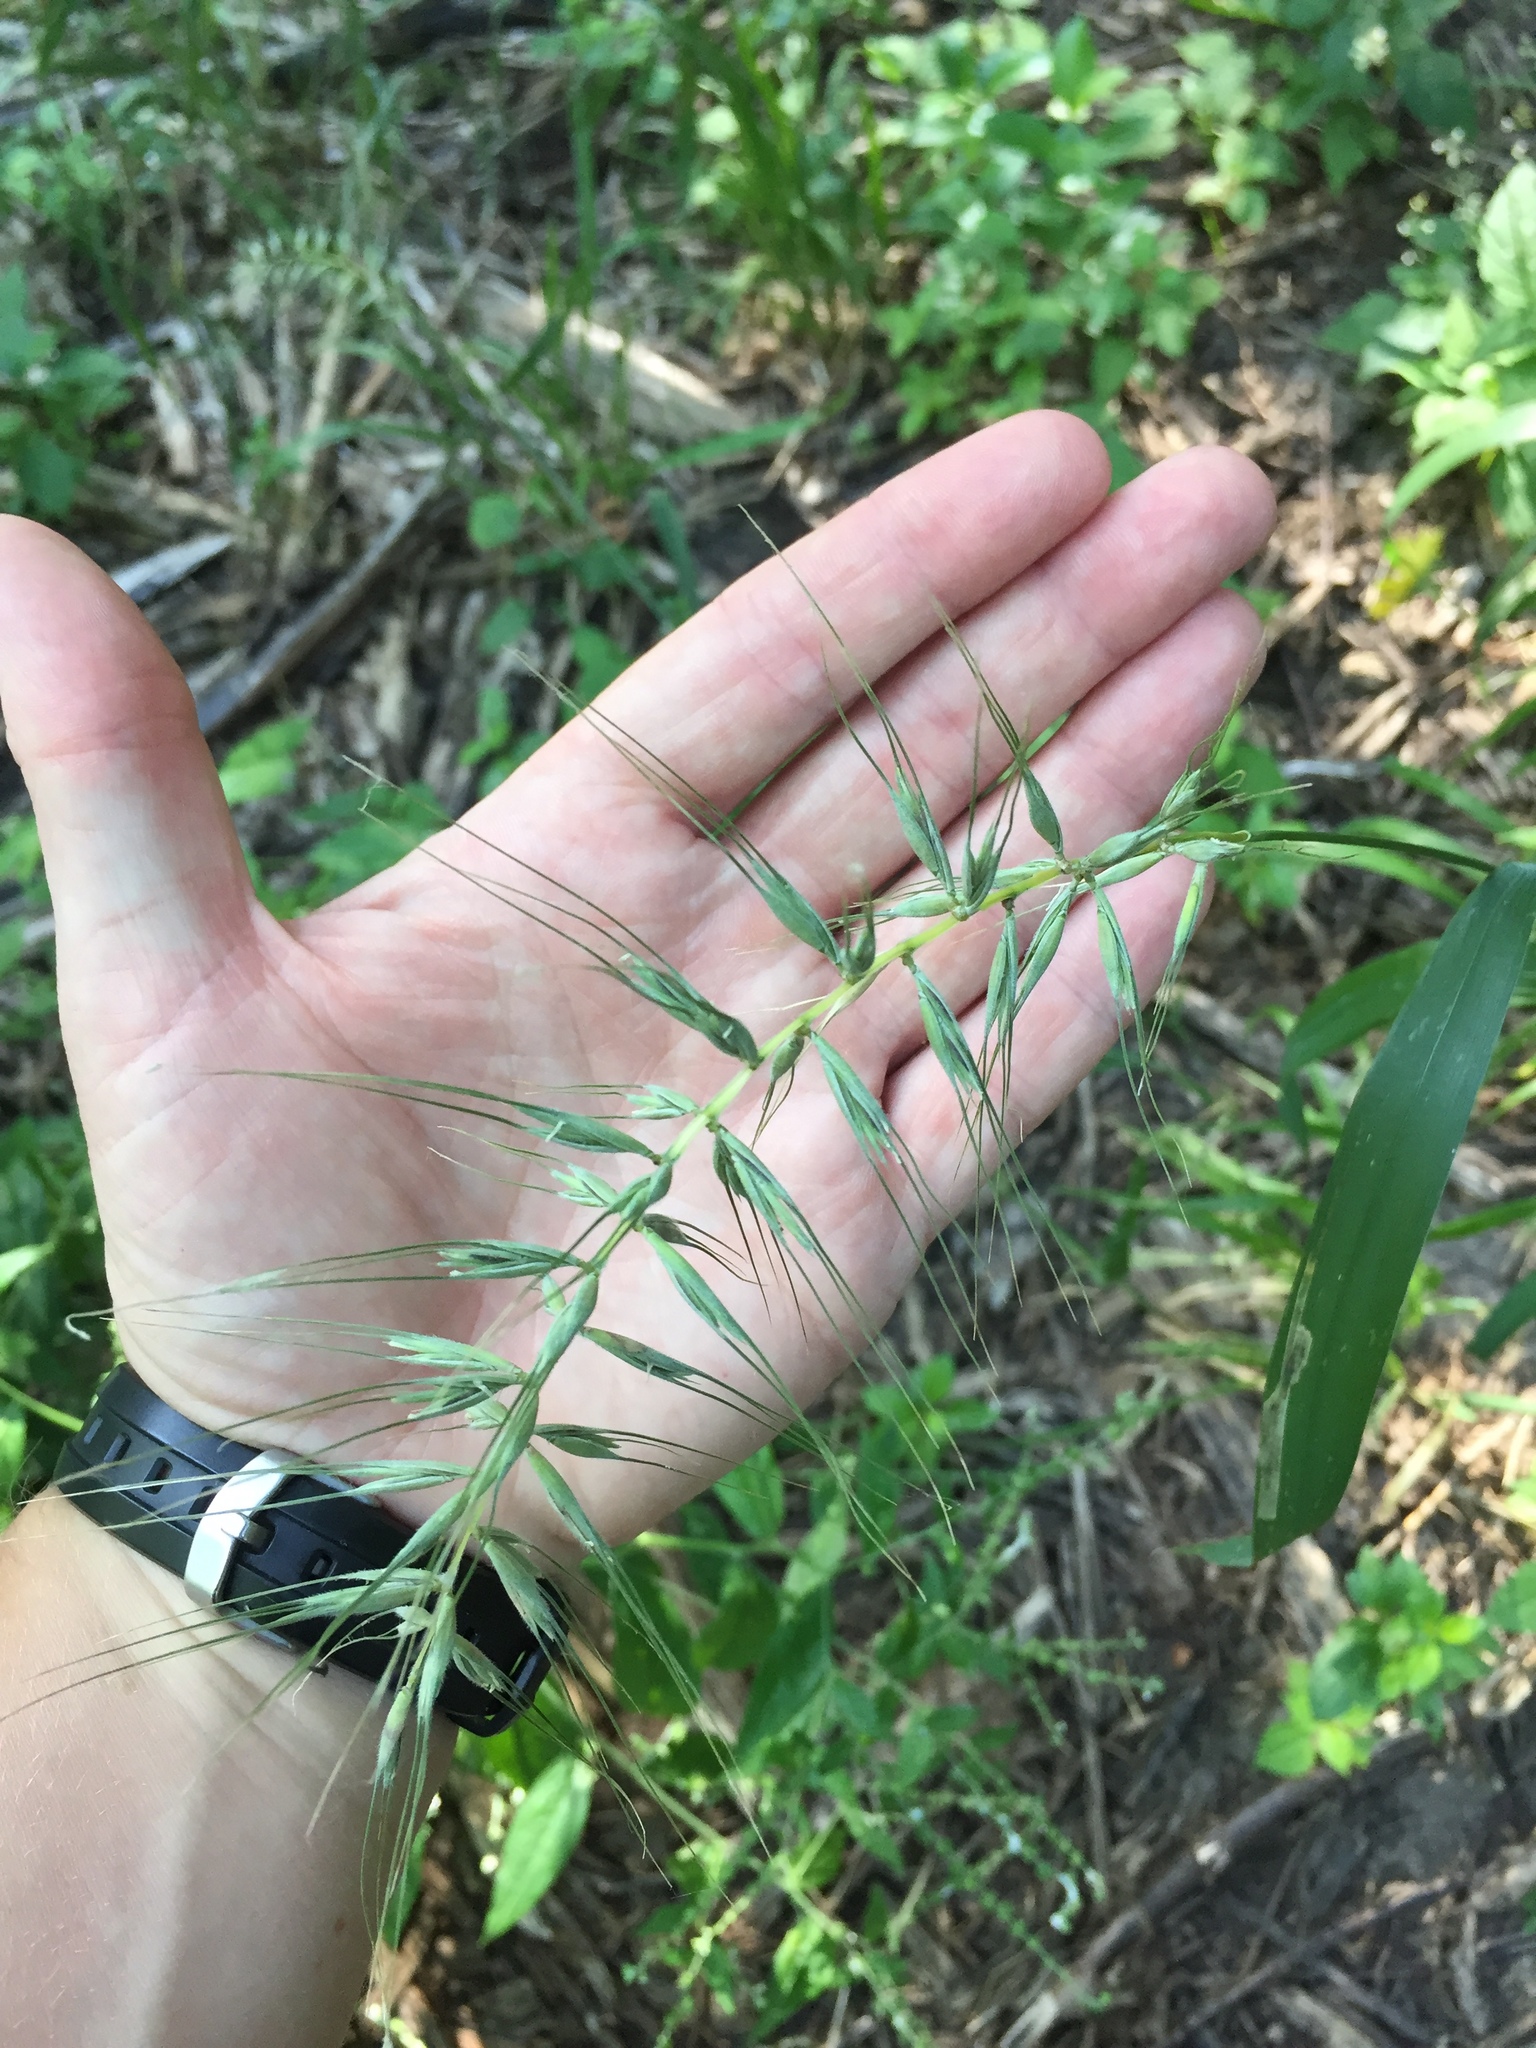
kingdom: Plantae
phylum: Tracheophyta
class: Liliopsida
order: Poales
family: Poaceae
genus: Elymus
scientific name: Elymus hystrix
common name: Bottlebrush grass
